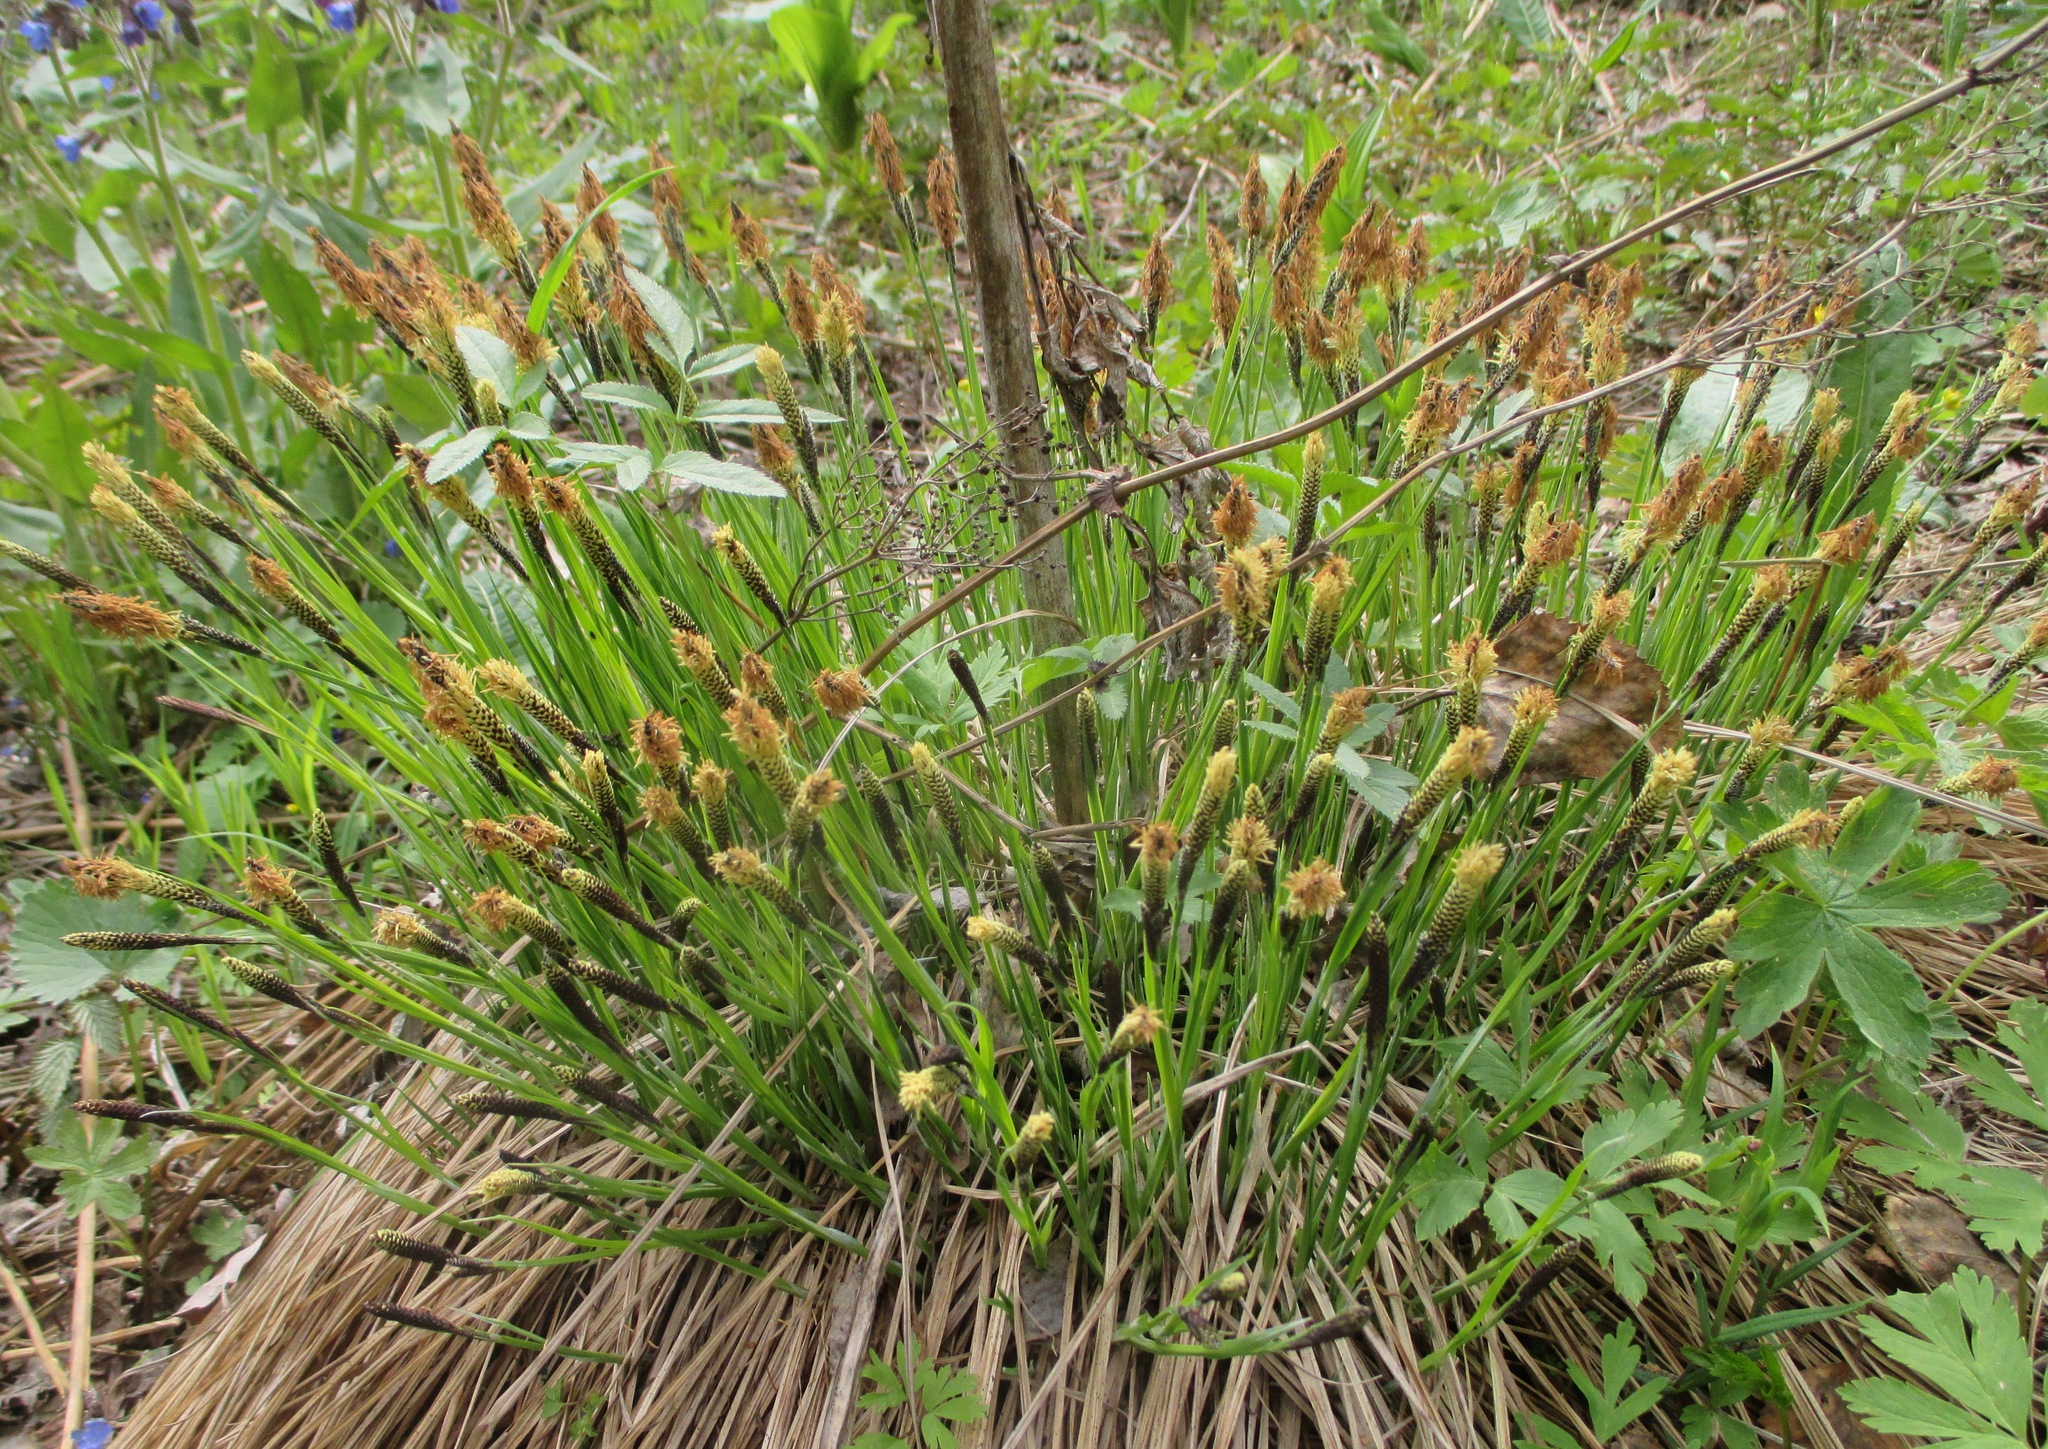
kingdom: Plantae
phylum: Tracheophyta
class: Liliopsida
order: Poales
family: Cyperaceae
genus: Carex
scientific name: Carex cespitosa
